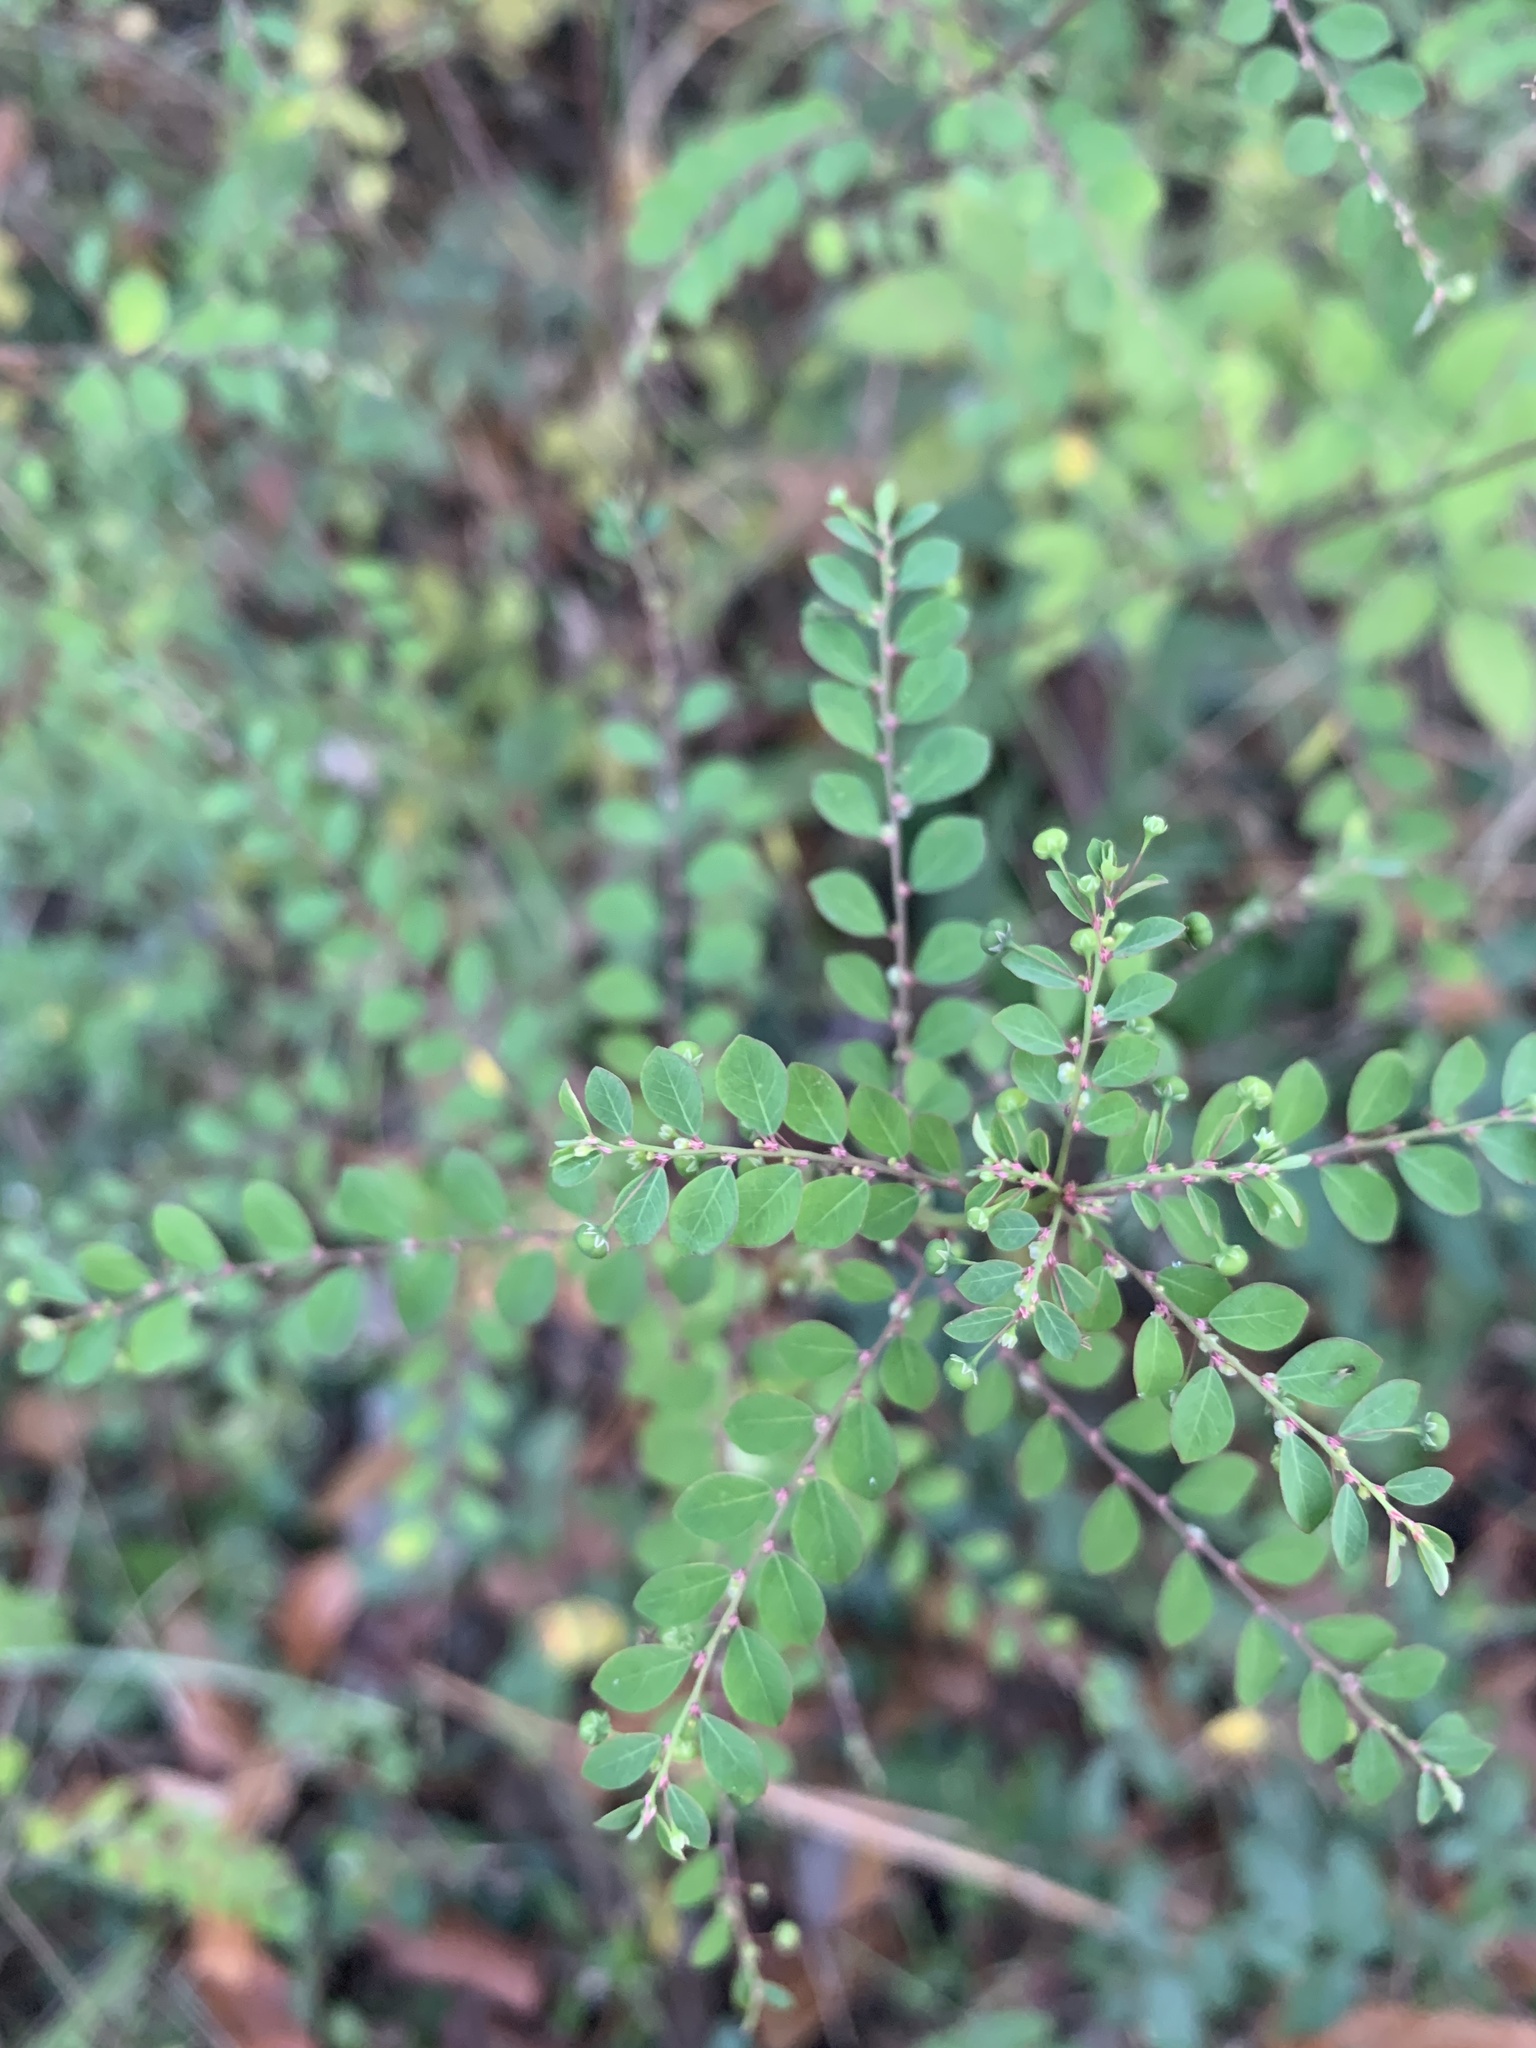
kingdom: Plantae
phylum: Tracheophyta
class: Magnoliopsida
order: Malpighiales
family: Phyllanthaceae
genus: Phyllanthus
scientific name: Phyllanthus tenellus
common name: Mascarene island leaf-flower
